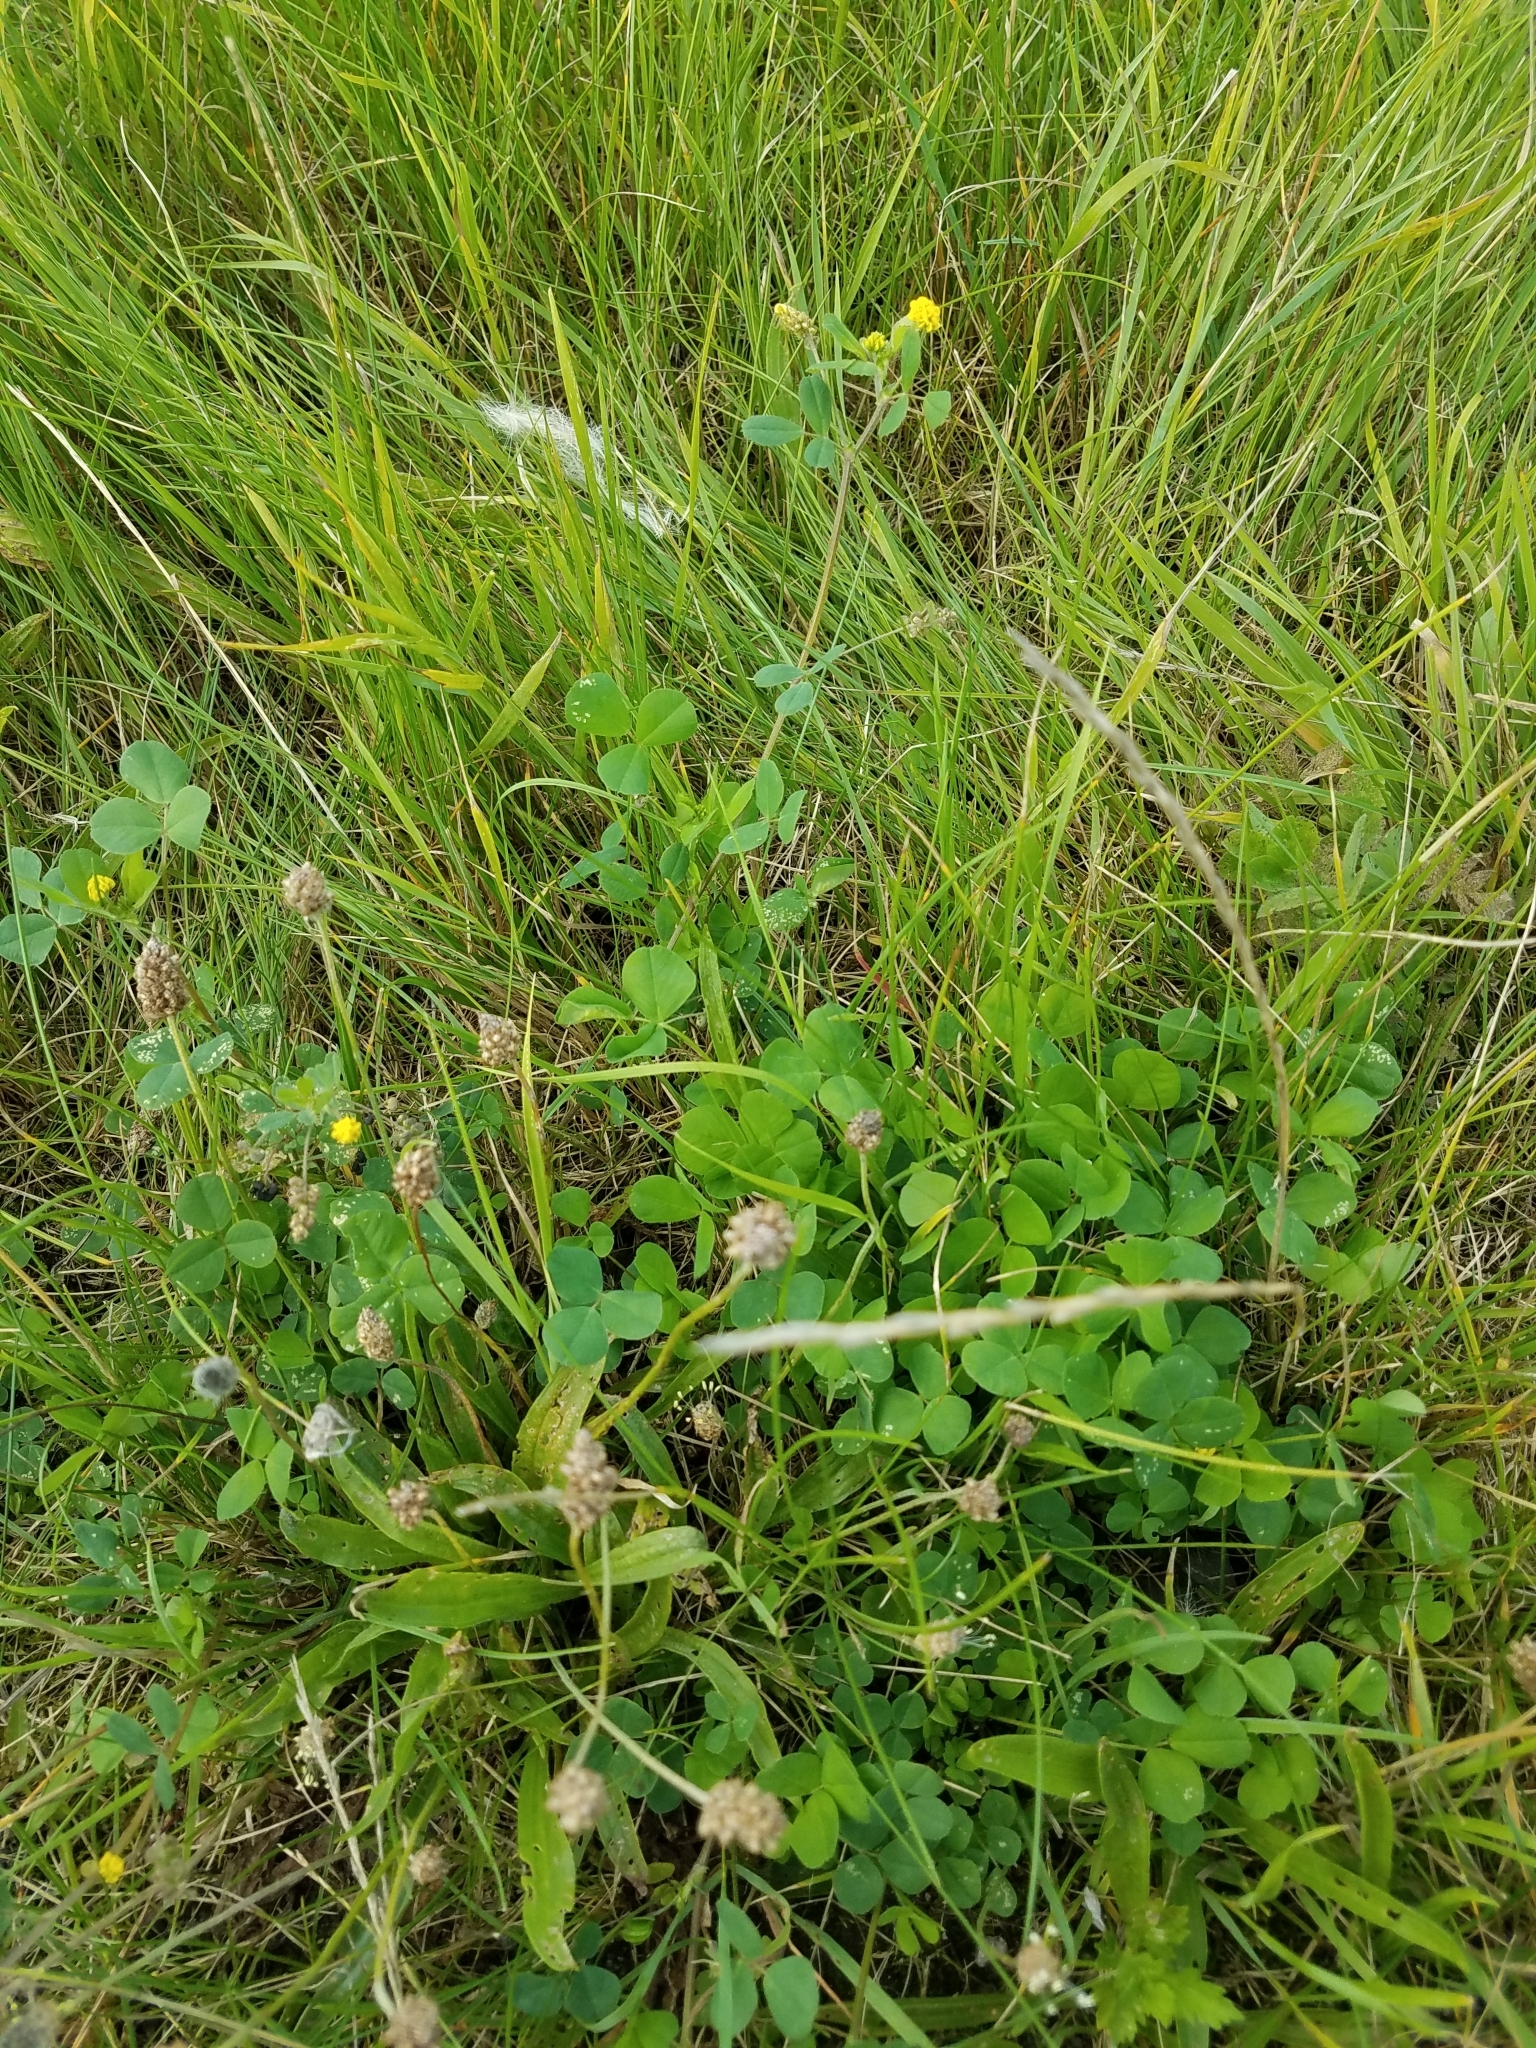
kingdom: Plantae
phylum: Tracheophyta
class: Magnoliopsida
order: Fabales
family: Fabaceae
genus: Medicago
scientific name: Medicago lupulina
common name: Black medick
